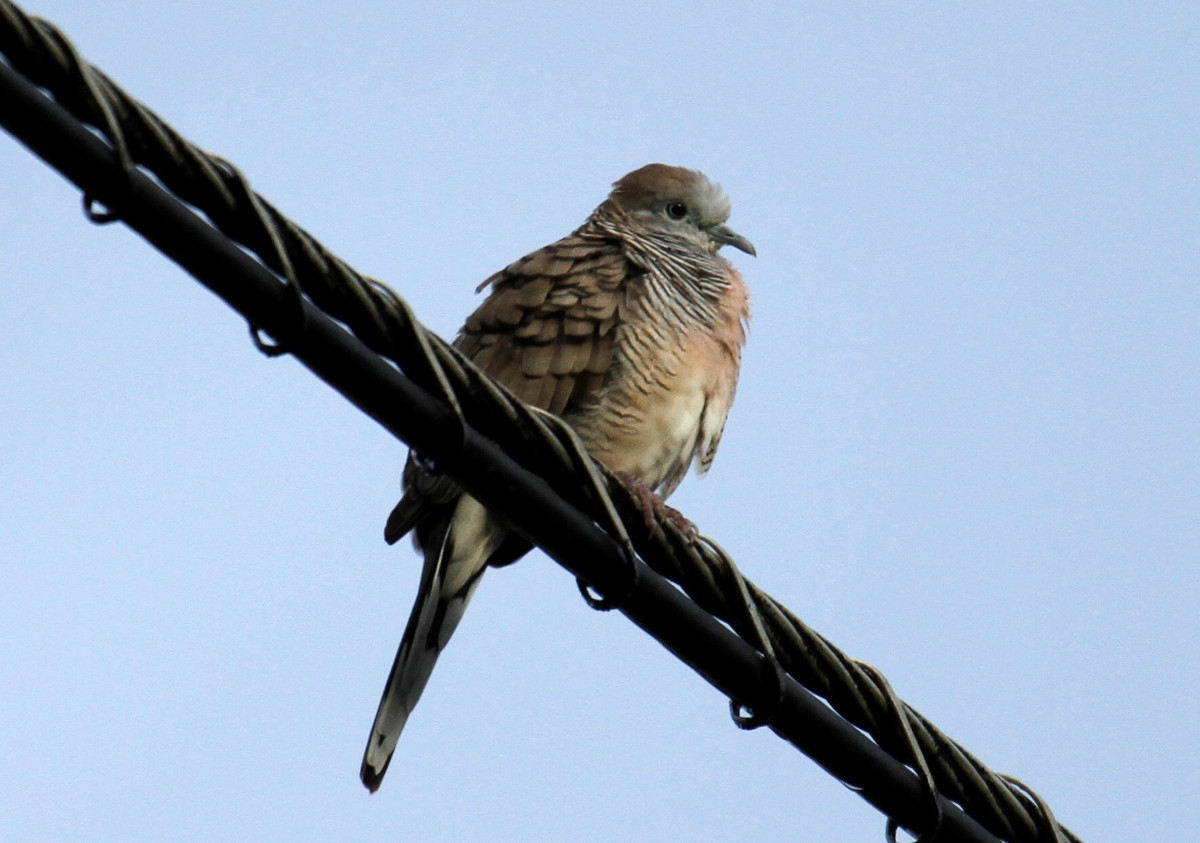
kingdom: Animalia
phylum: Chordata
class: Aves
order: Columbiformes
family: Columbidae
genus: Geopelia
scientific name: Geopelia striata
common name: Zebra dove
